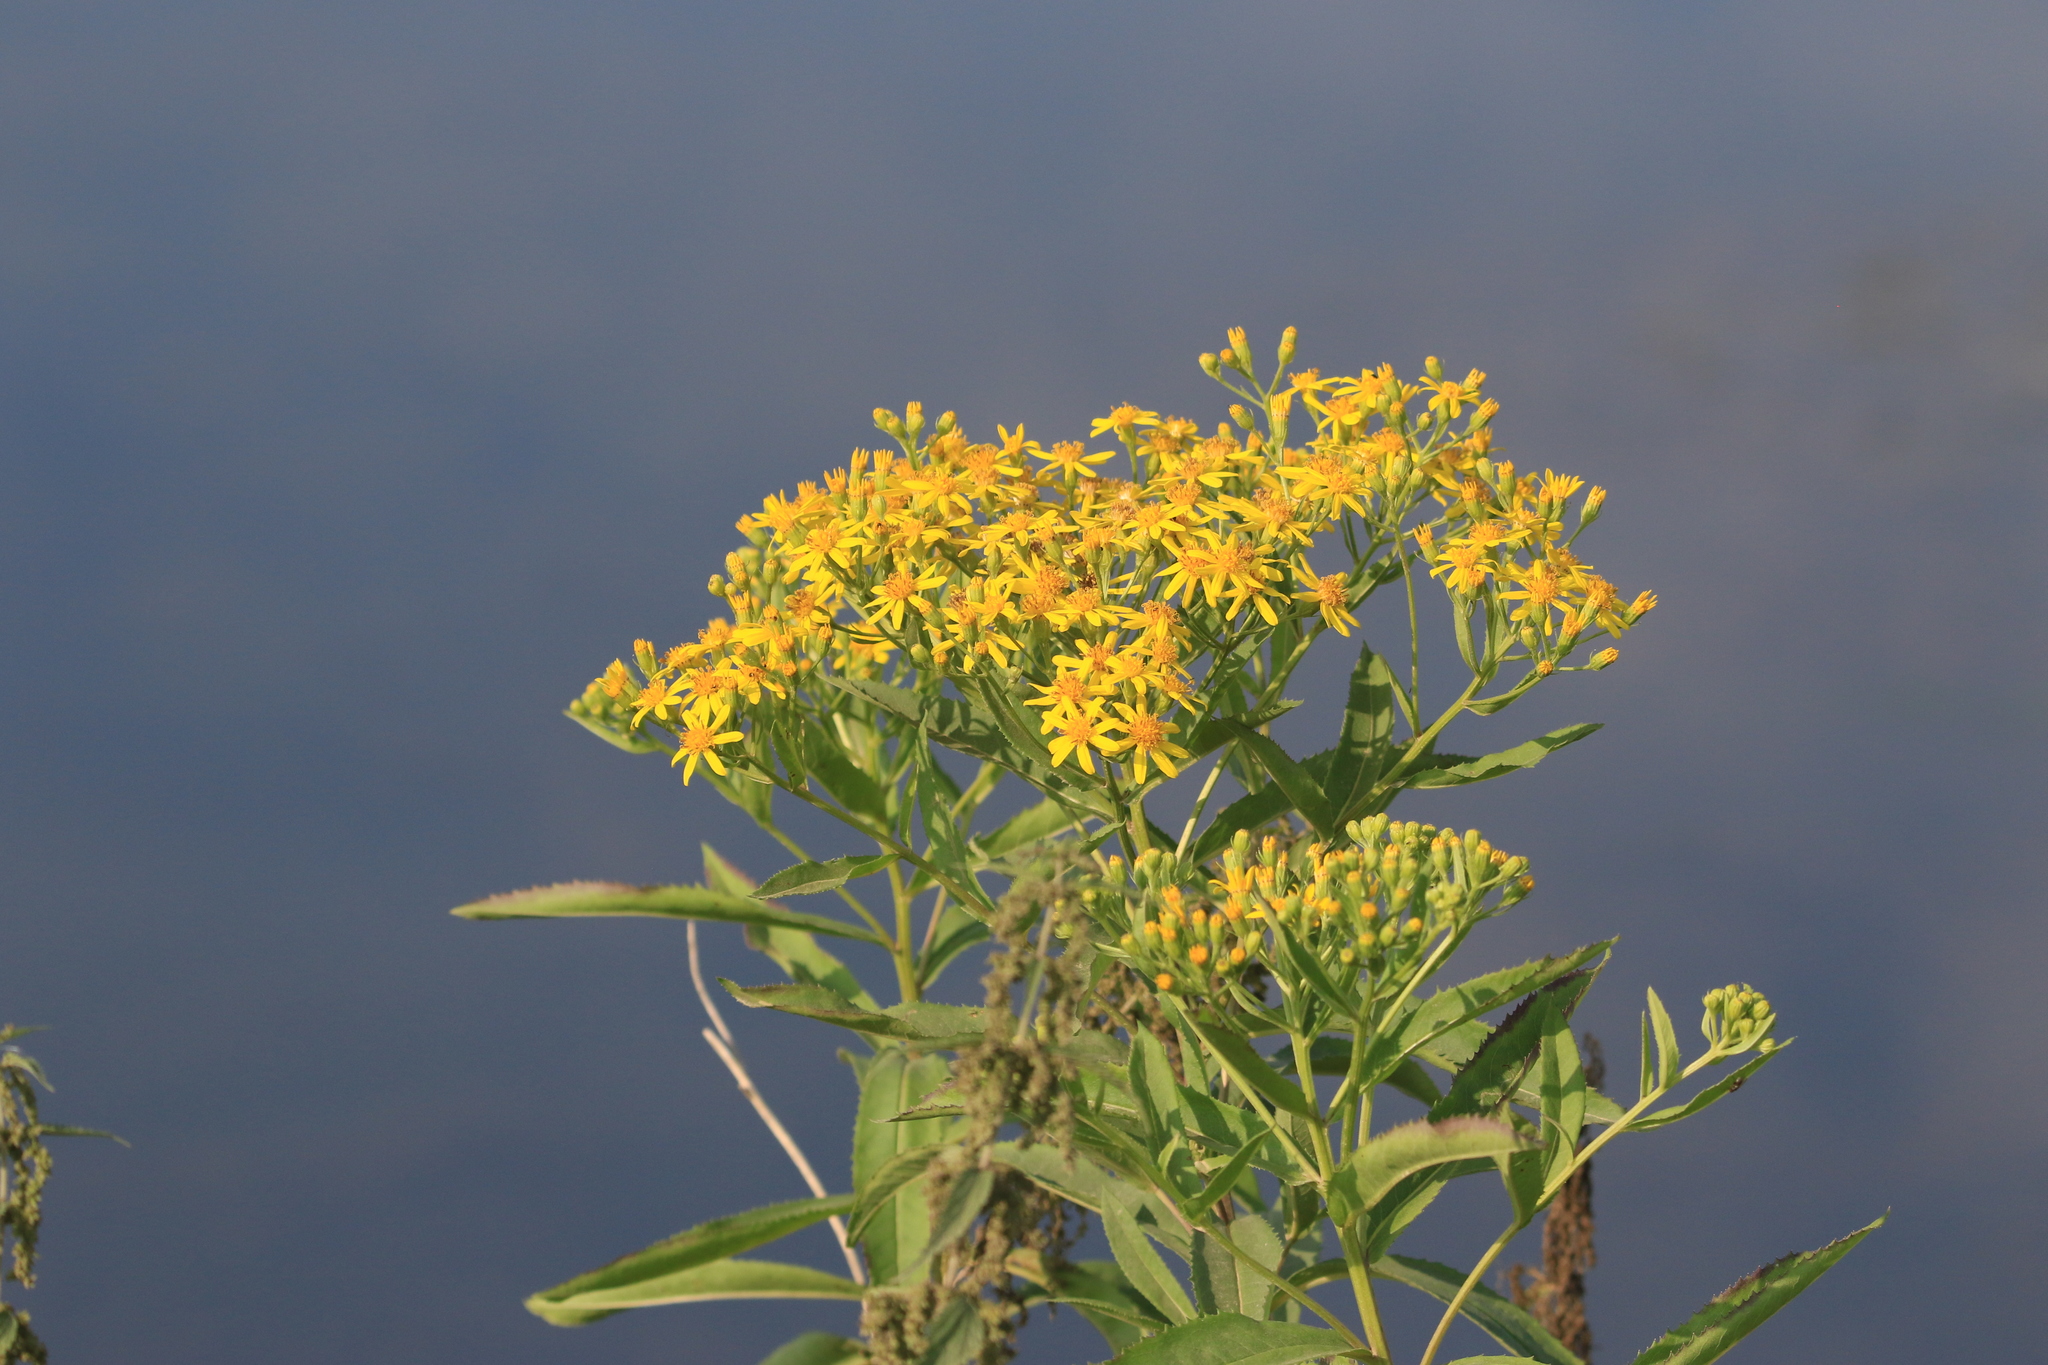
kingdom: Plantae
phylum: Tracheophyta
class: Magnoliopsida
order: Asterales
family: Asteraceae
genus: Senecio
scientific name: Senecio sarracenicus
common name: Broad-leaved ragwort
